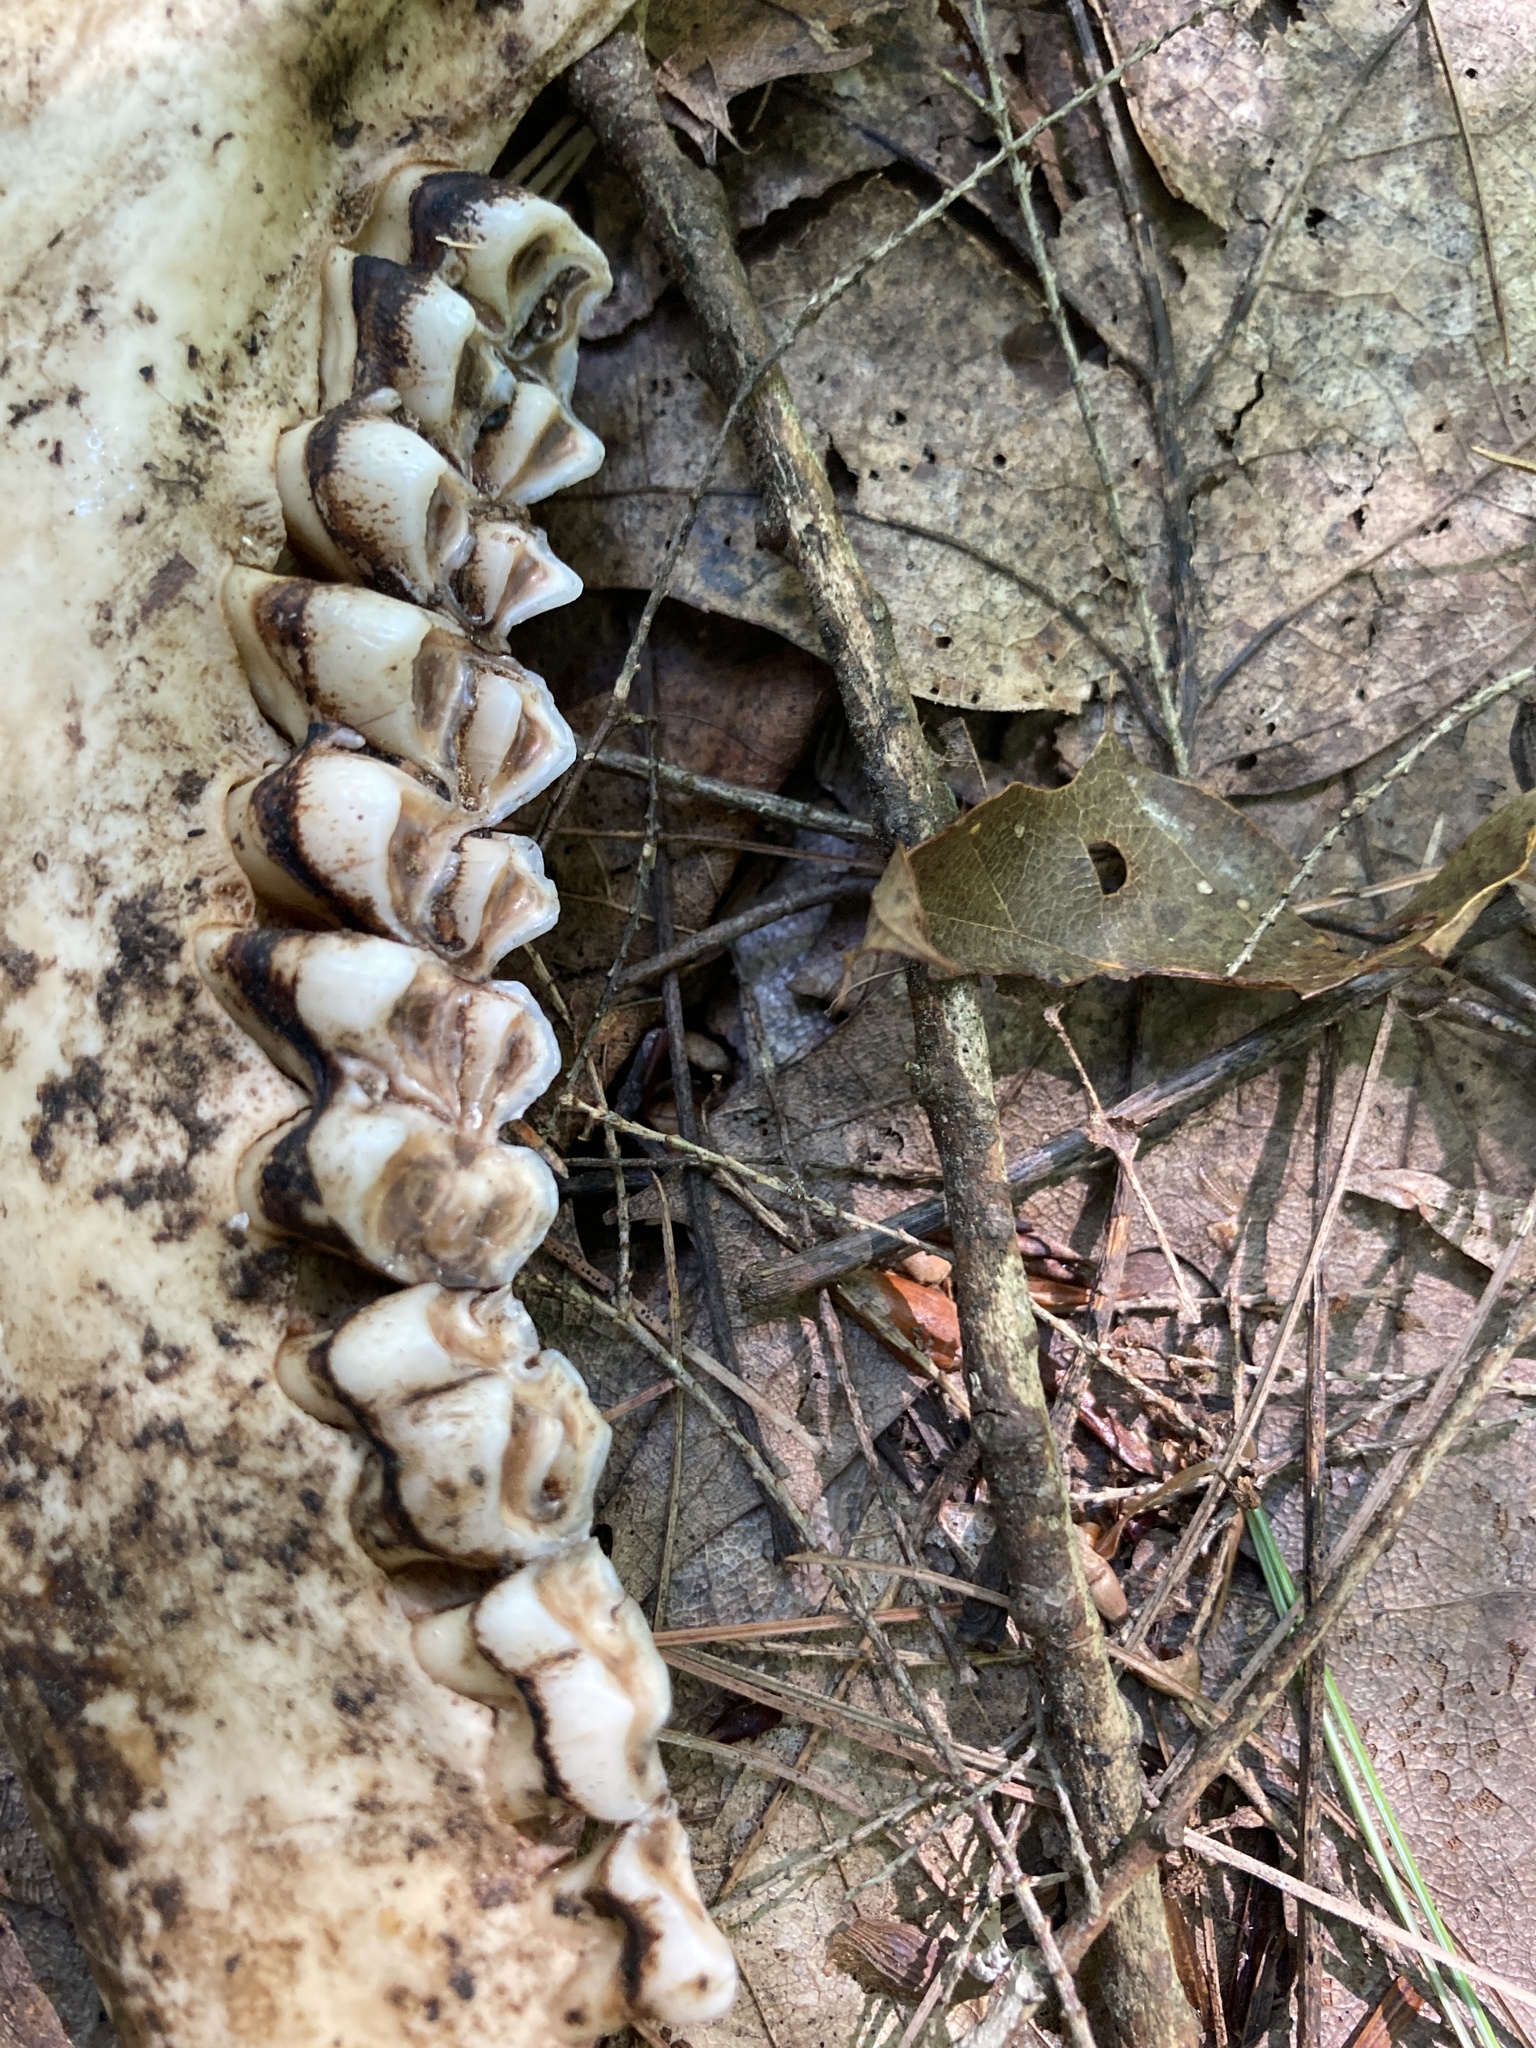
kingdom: Animalia
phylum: Chordata
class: Mammalia
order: Artiodactyla
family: Cervidae
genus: Odocoileus
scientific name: Odocoileus virginianus
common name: White-tailed deer
